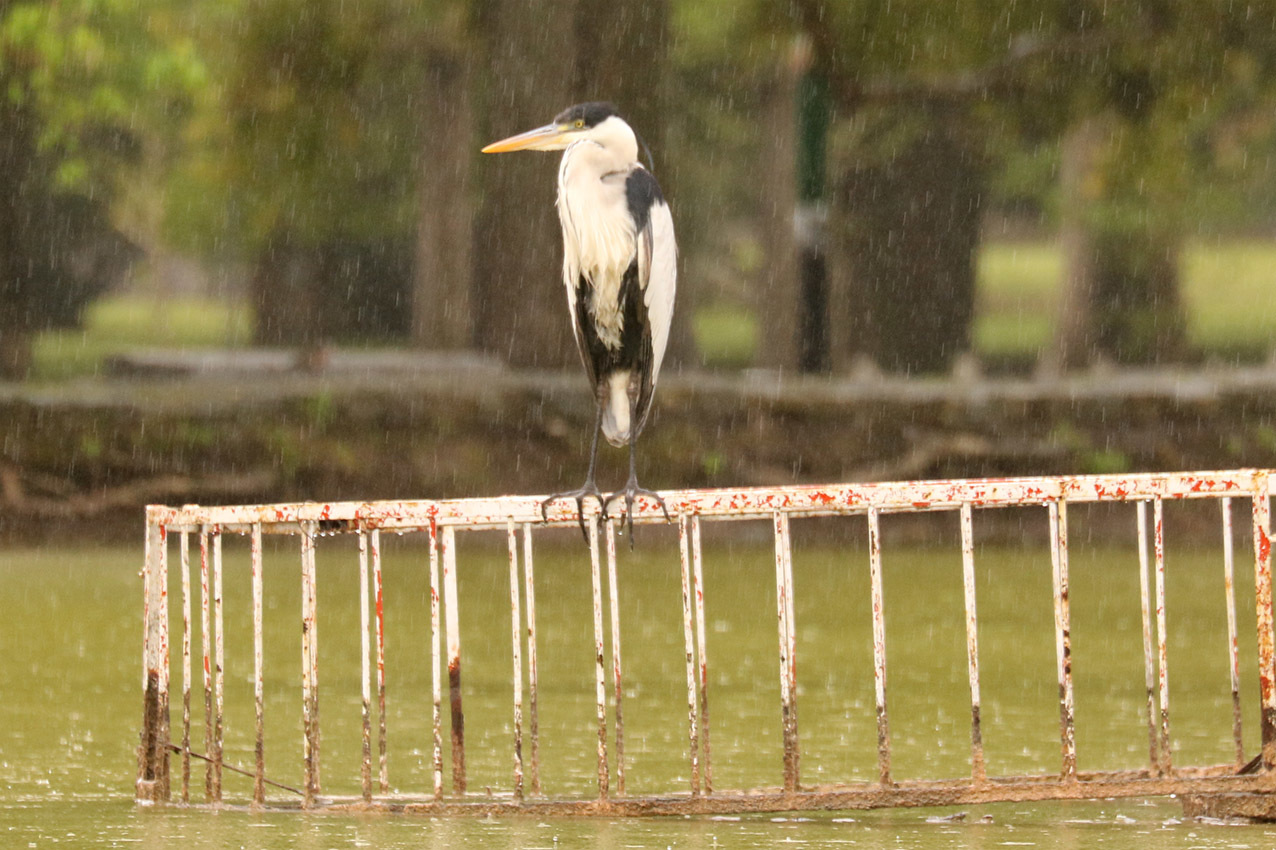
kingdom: Animalia
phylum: Chordata
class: Aves
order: Pelecaniformes
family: Ardeidae
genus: Ardea
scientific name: Ardea cocoi
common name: Cocoi heron
